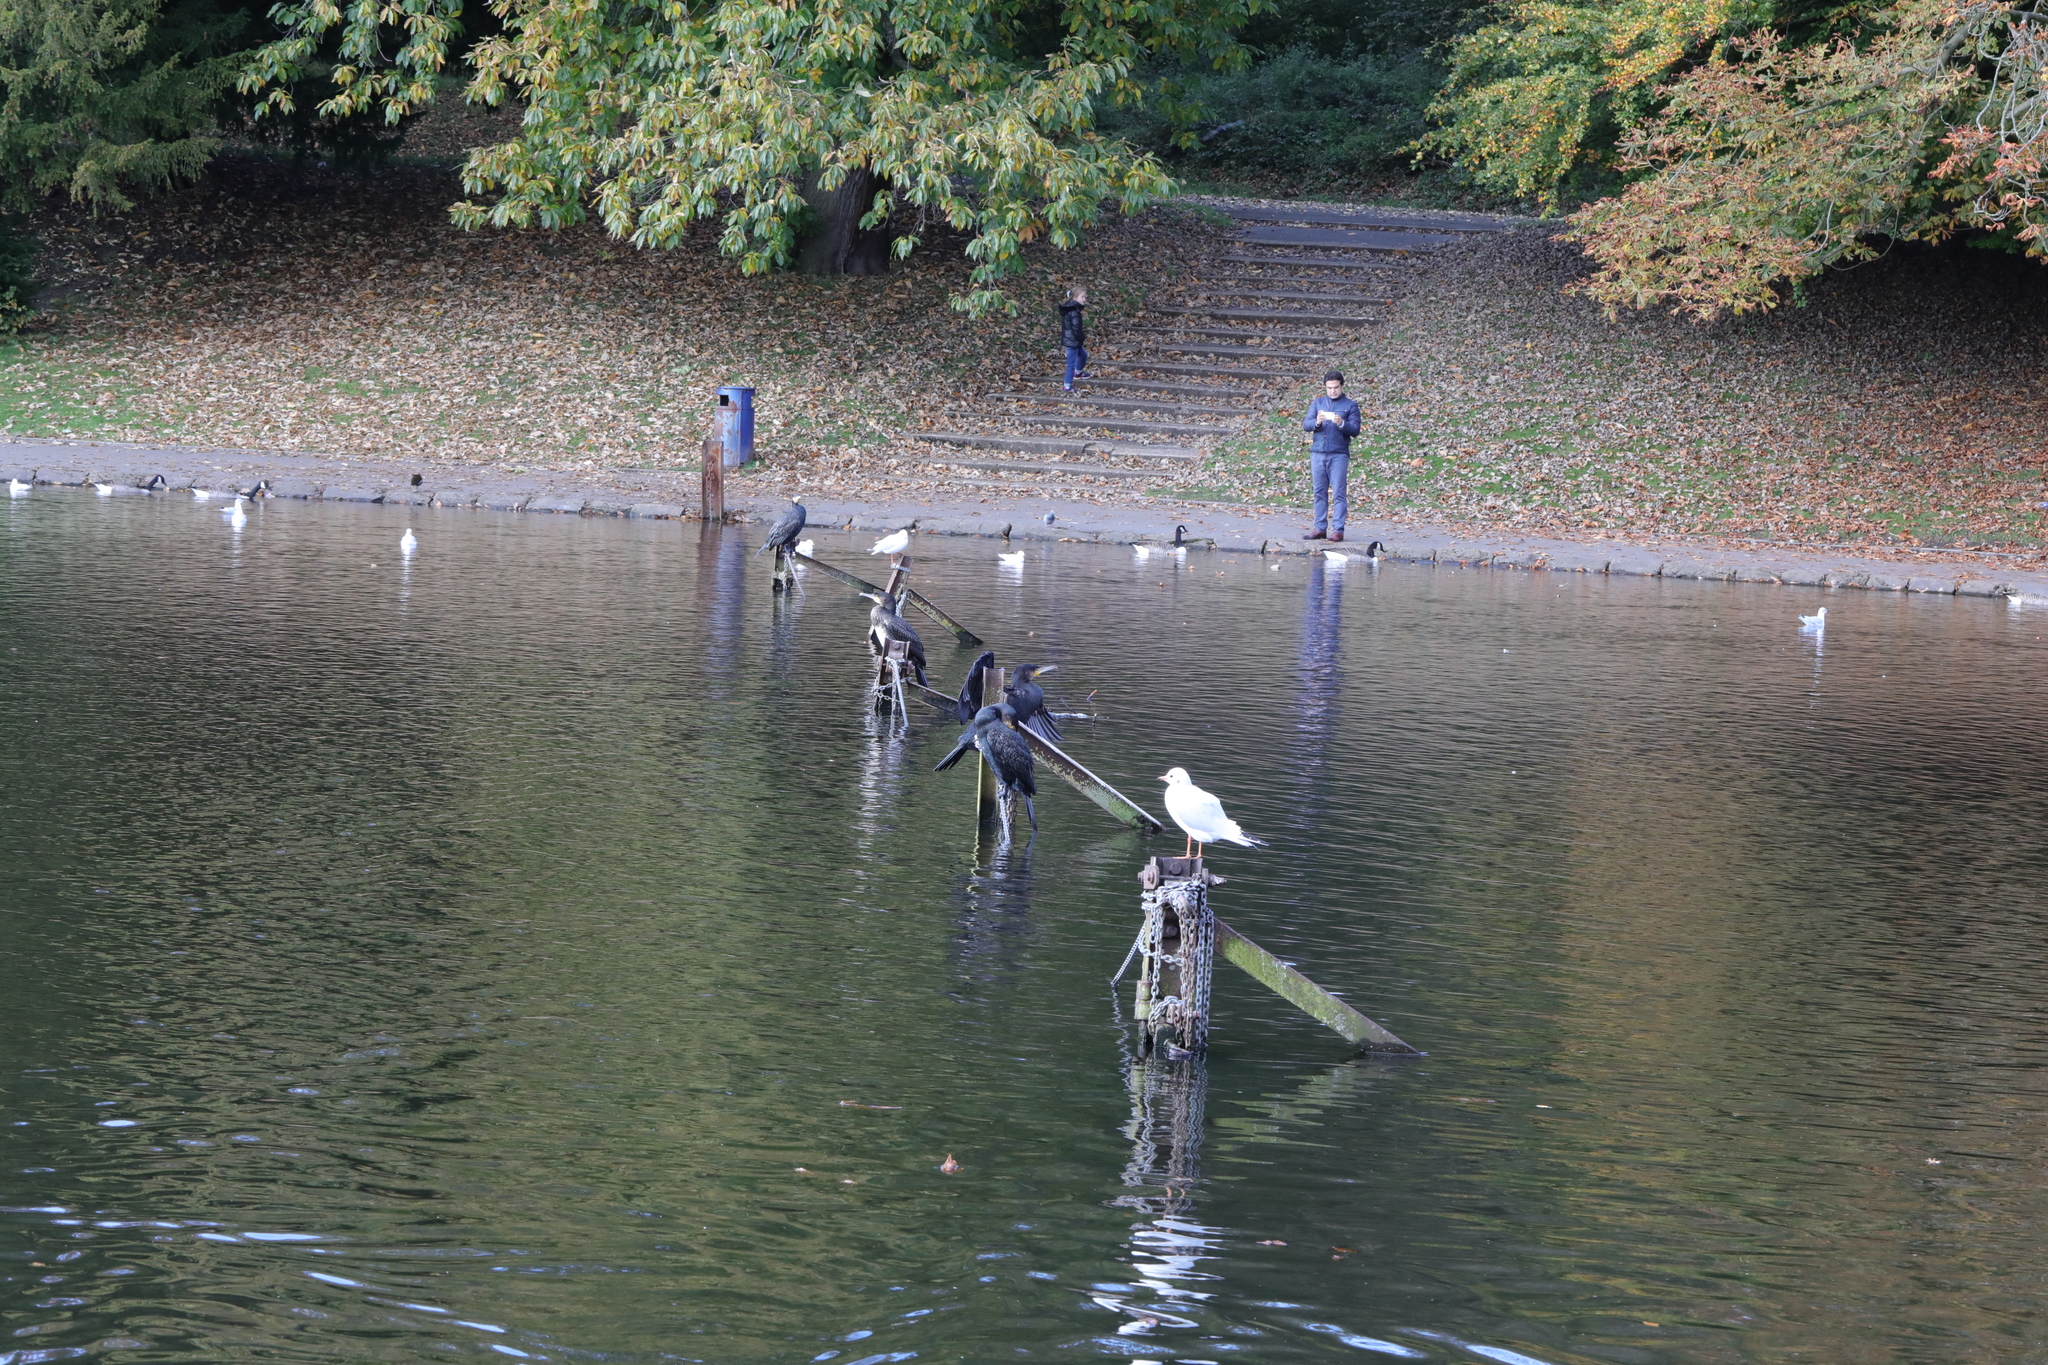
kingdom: Animalia
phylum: Chordata
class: Aves
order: Suliformes
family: Phalacrocoracidae
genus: Phalacrocorax
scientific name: Phalacrocorax carbo
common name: Great cormorant
